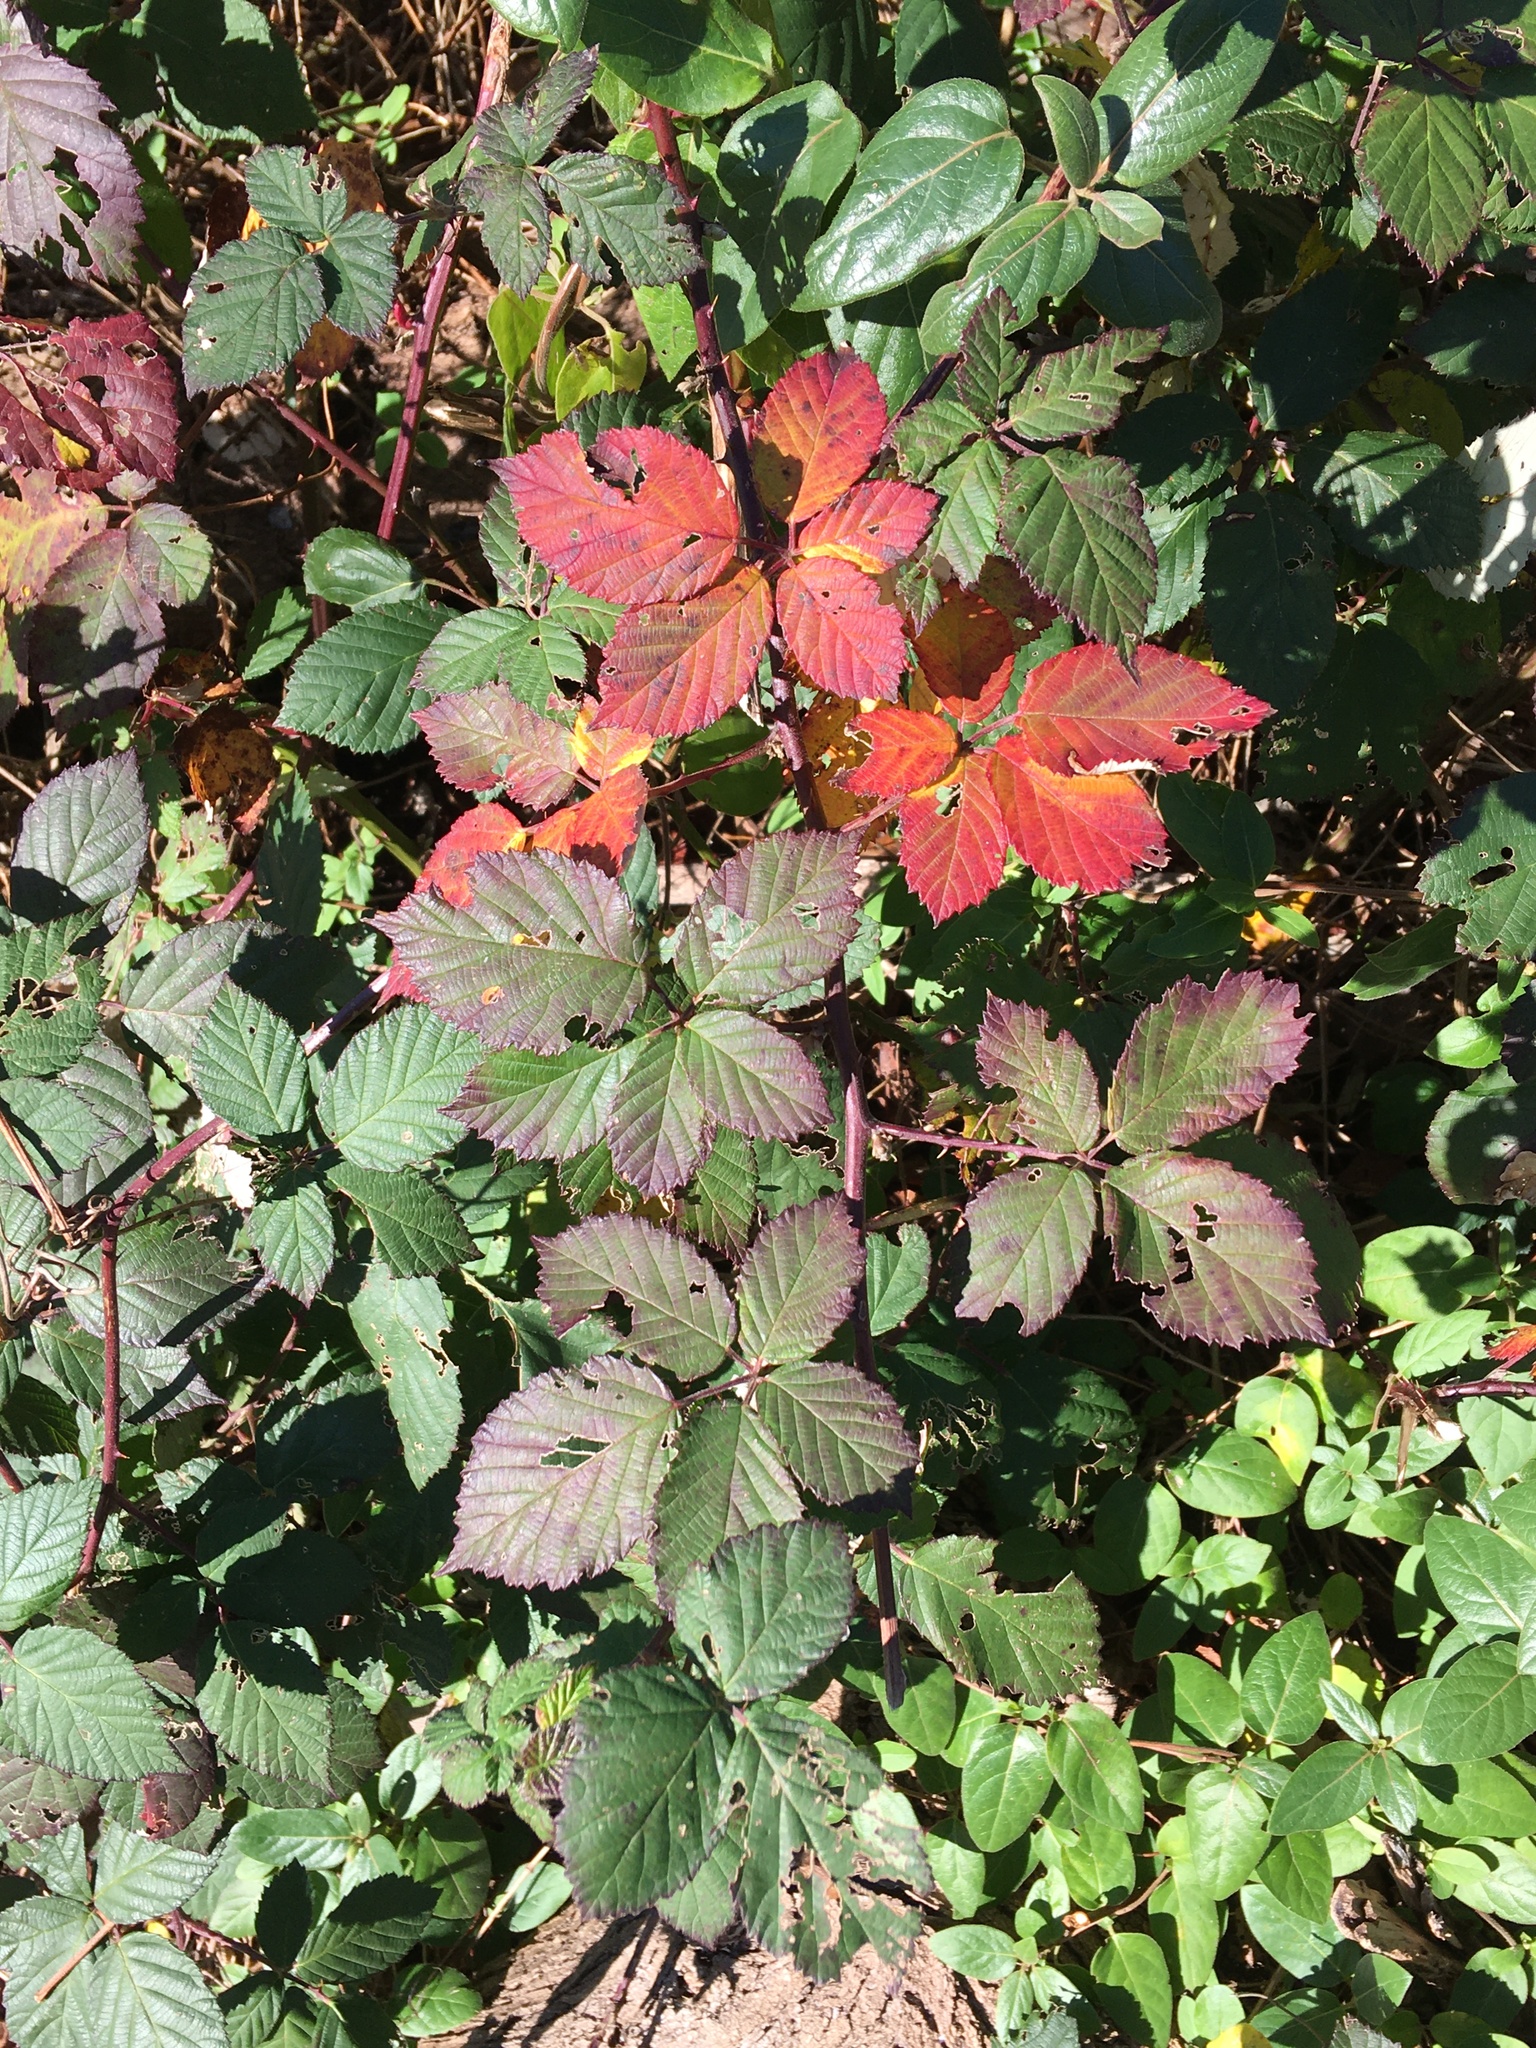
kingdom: Plantae
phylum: Tracheophyta
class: Magnoliopsida
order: Rosales
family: Rosaceae
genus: Rubus
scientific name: Rubus bifrons
